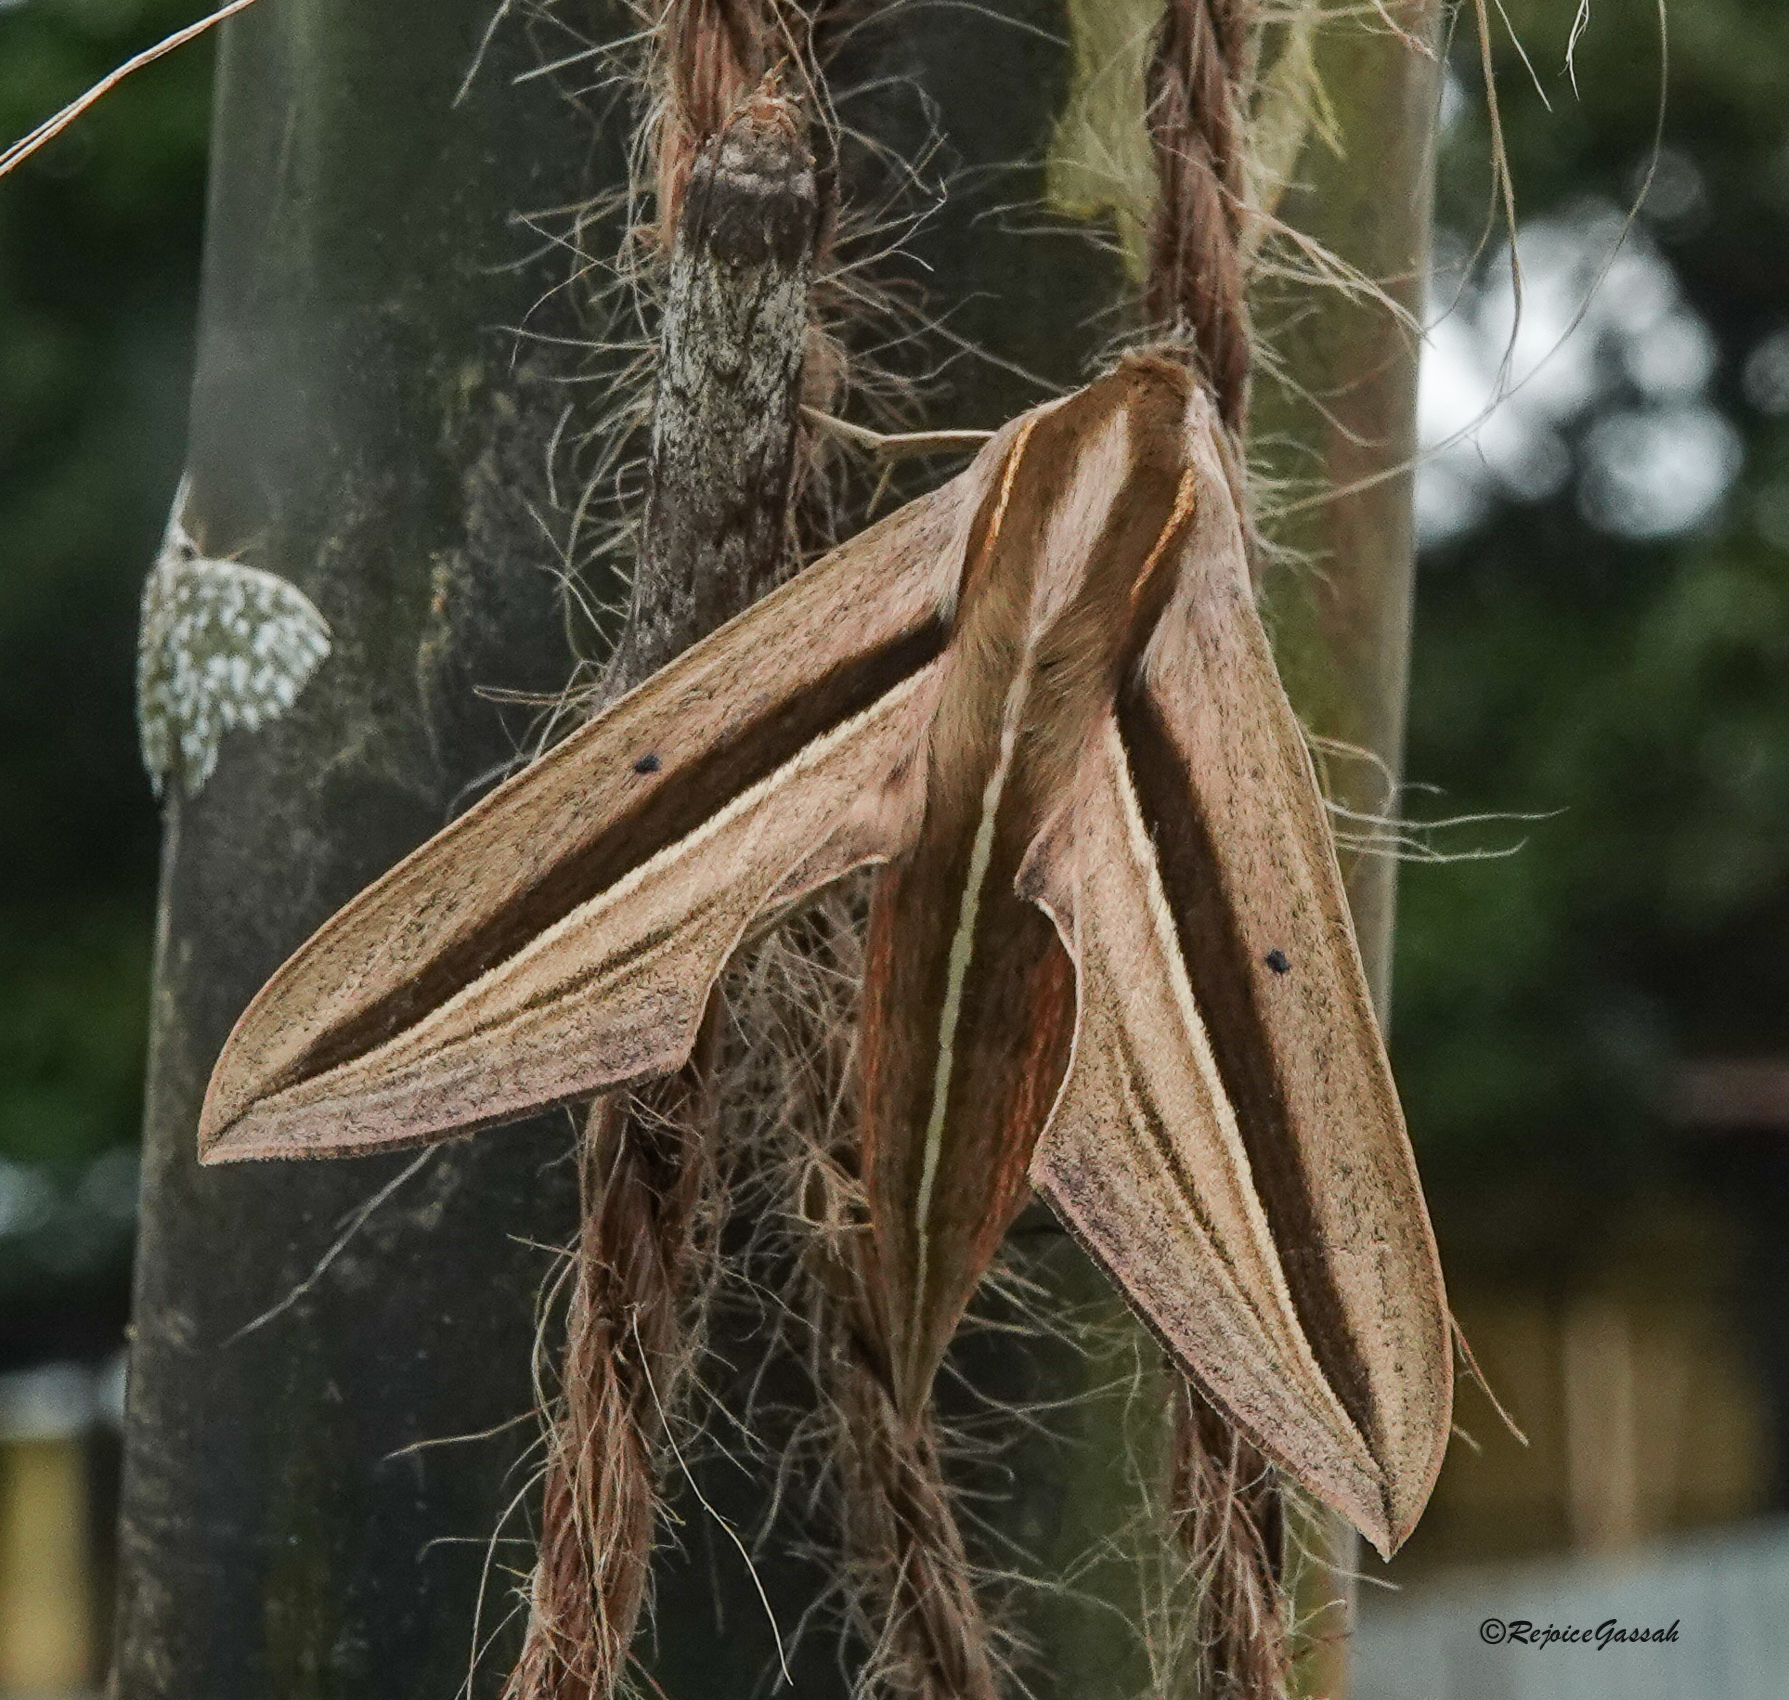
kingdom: Animalia
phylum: Arthropoda
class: Insecta
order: Lepidoptera
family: Sphingidae
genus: Theretra
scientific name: Theretra silhetensis
